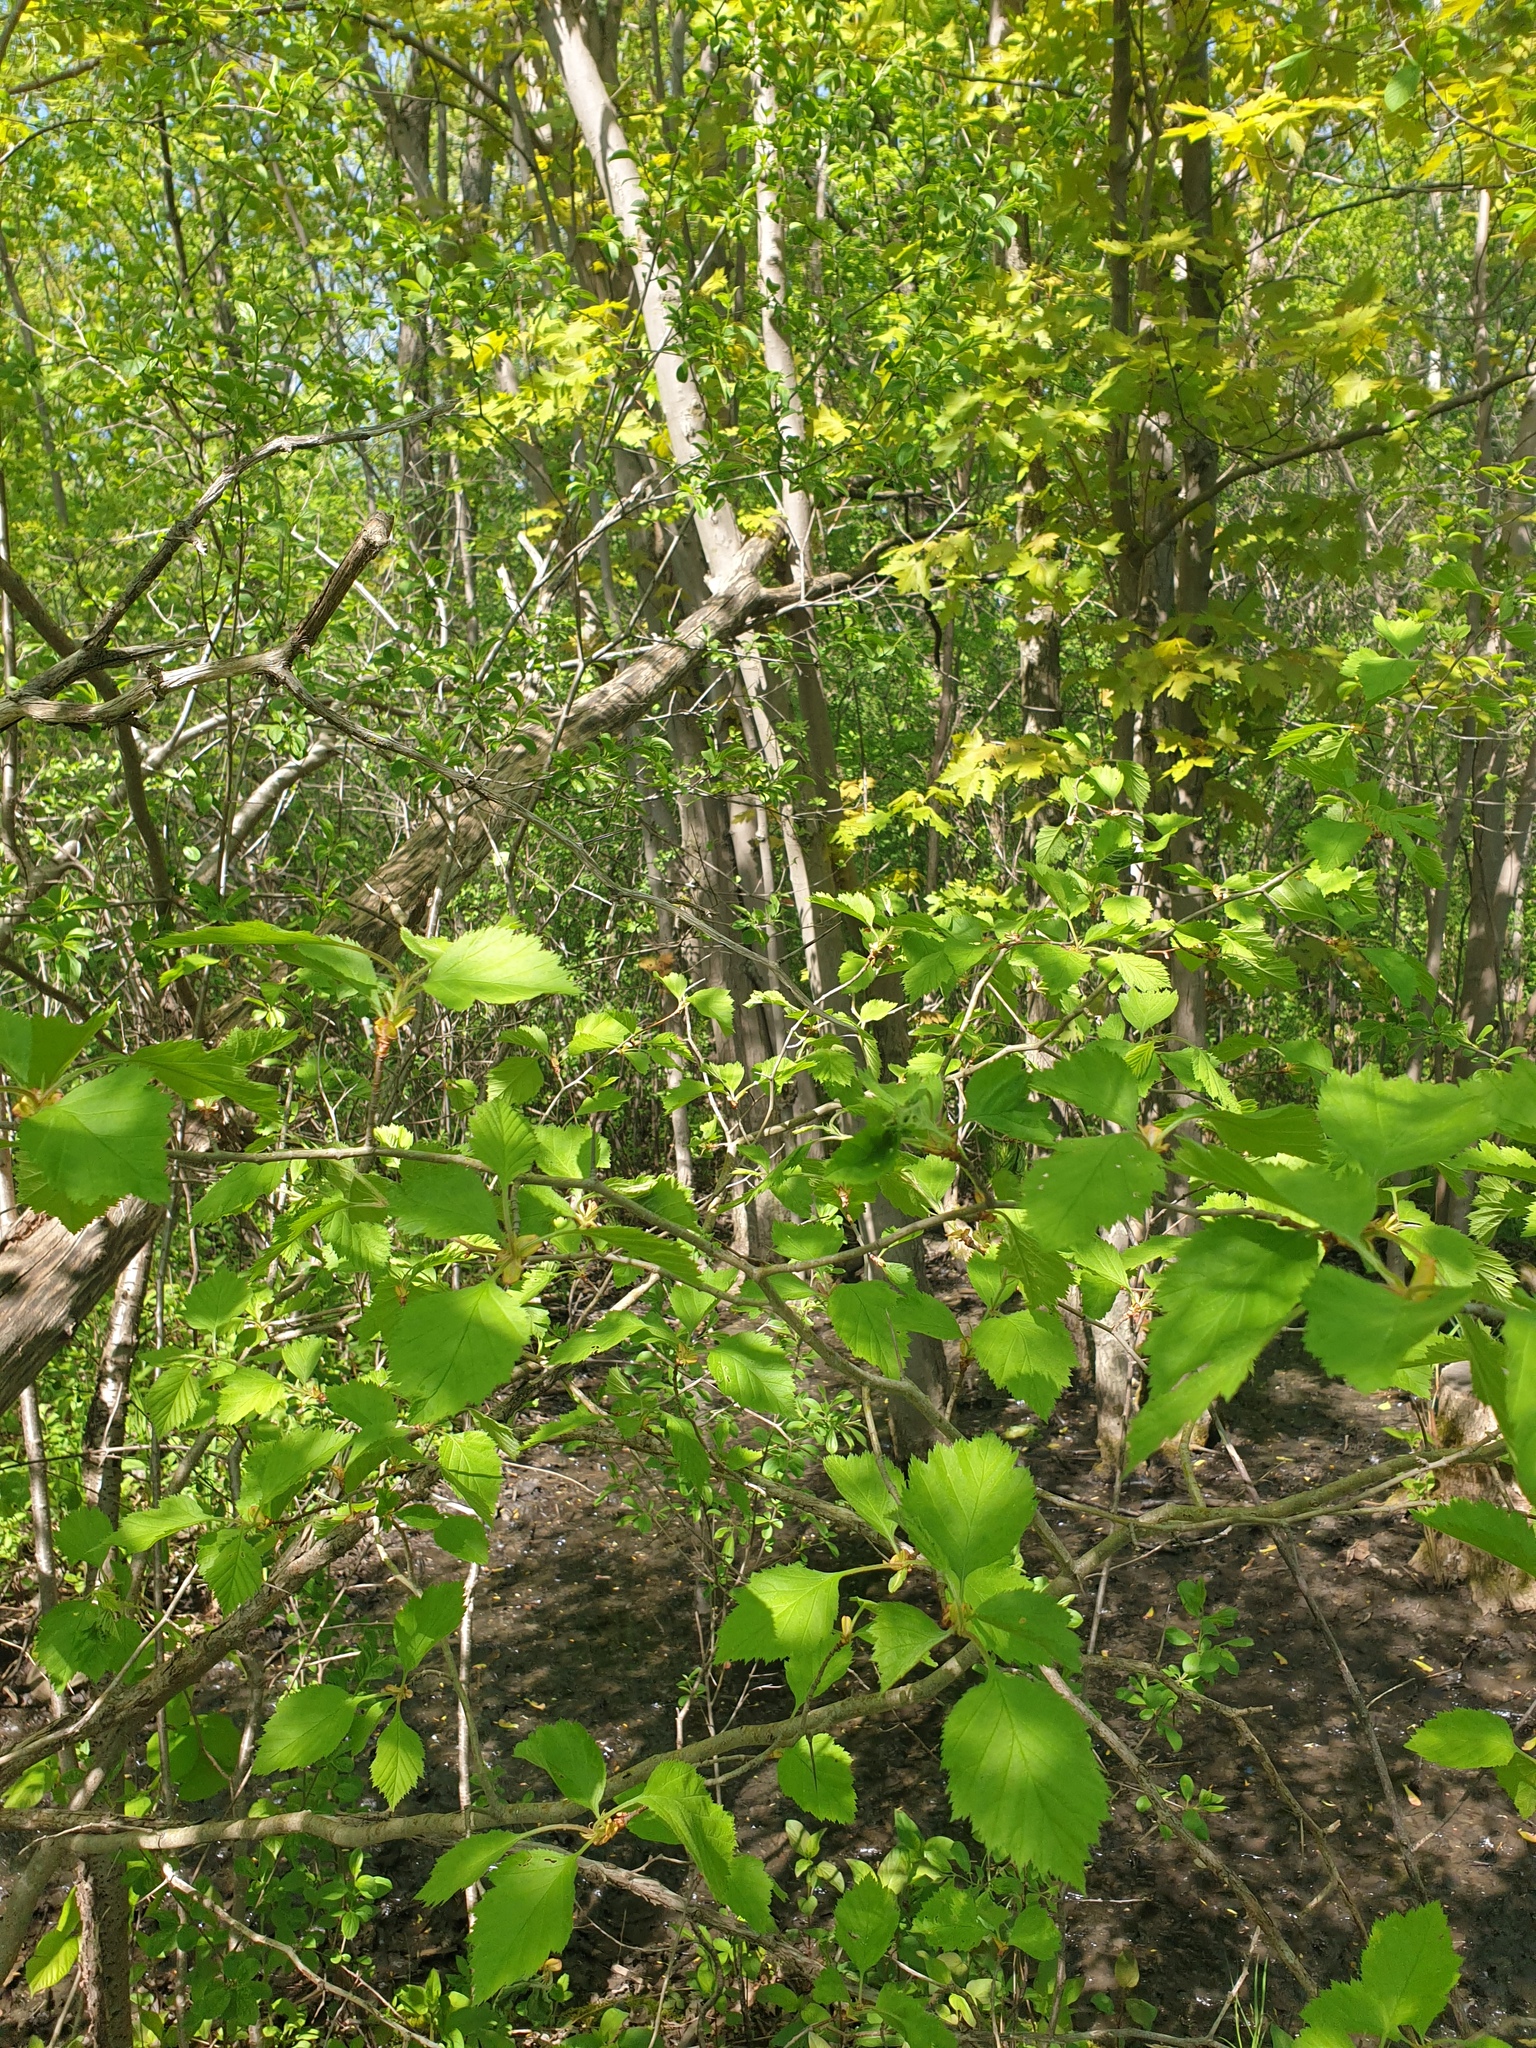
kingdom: Plantae
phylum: Tracheophyta
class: Magnoliopsida
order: Rosales
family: Rosaceae
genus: Crataegus
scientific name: Crataegus submollis
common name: Hairy cockspurthorn
